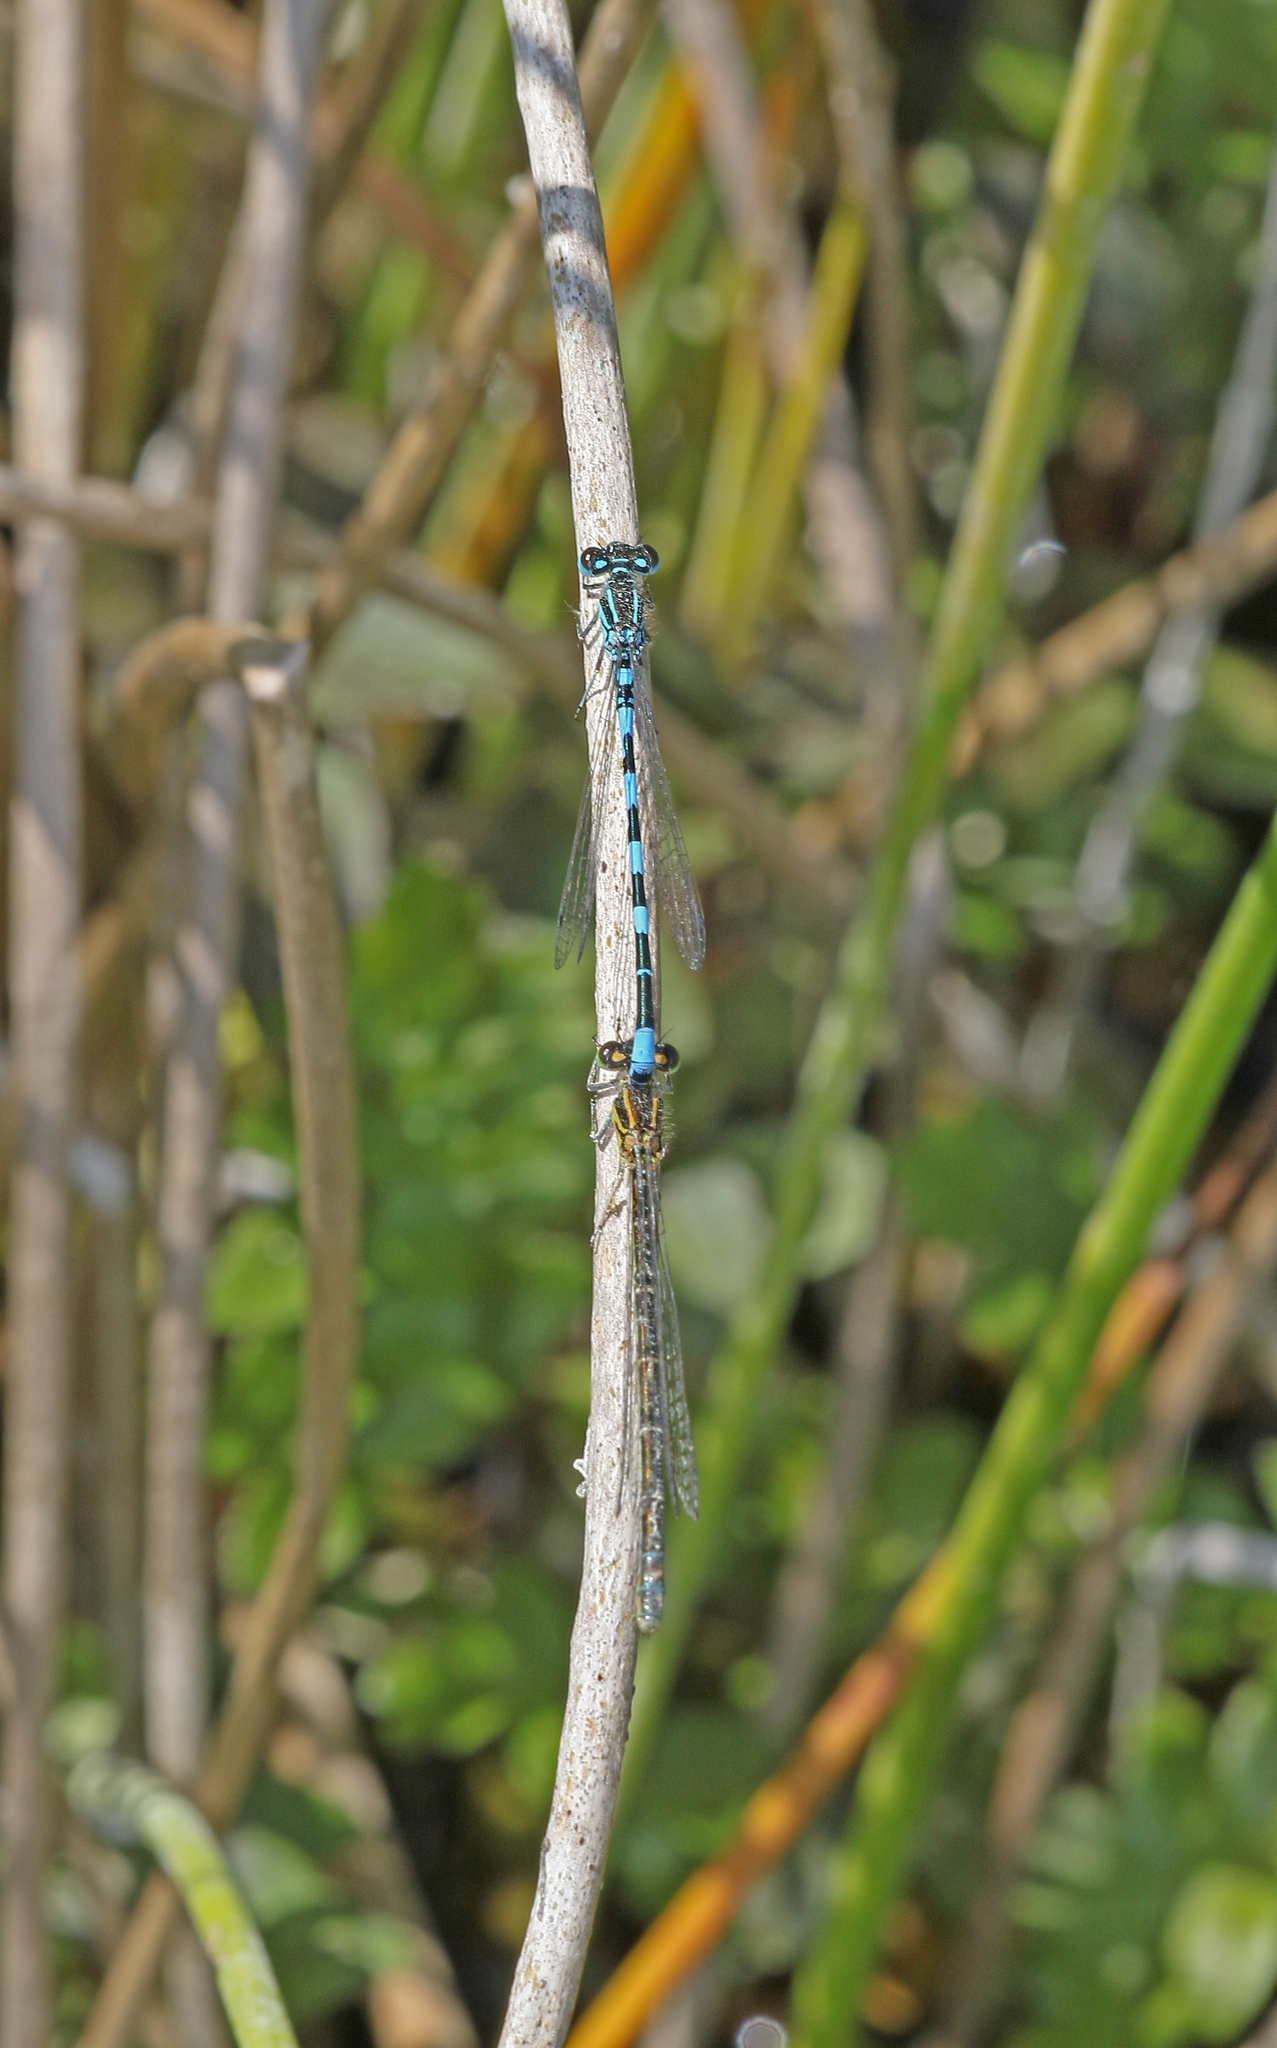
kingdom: Animalia
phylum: Arthropoda
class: Insecta
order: Odonata
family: Coenagrionidae
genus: Coenagrion
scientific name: Coenagrion mercuriale
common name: Southern damselfly
